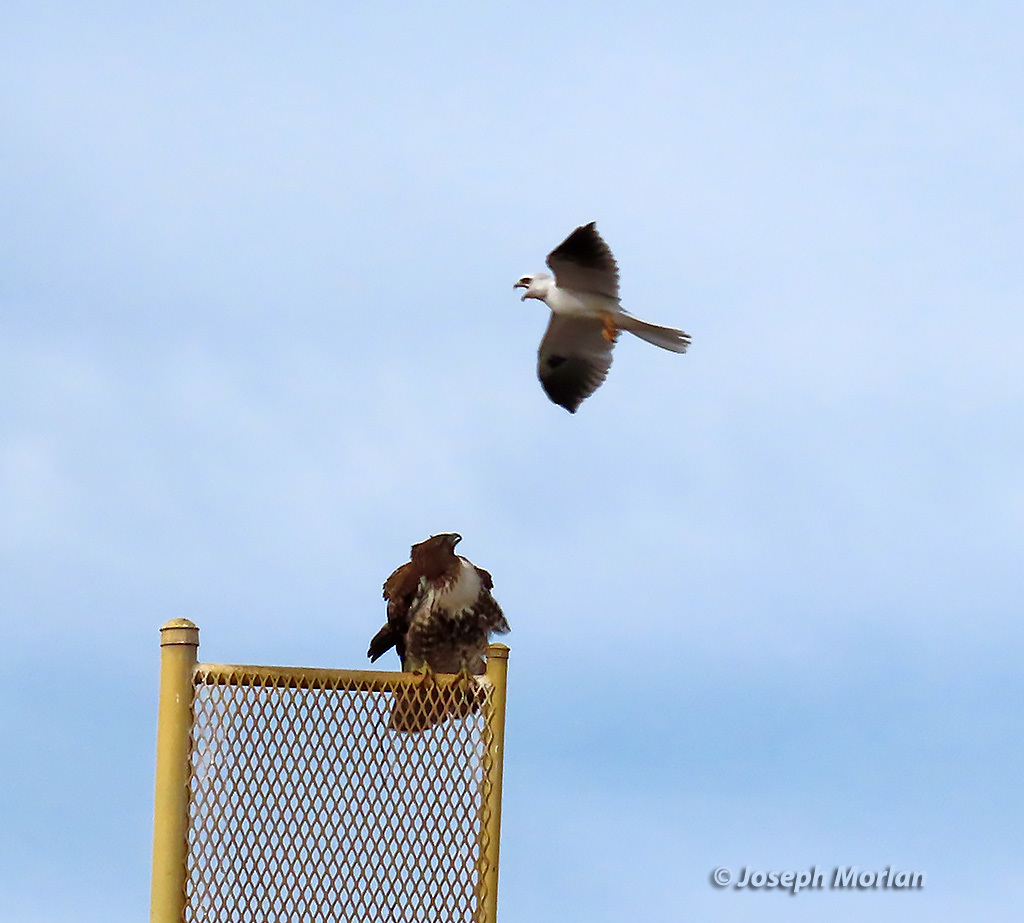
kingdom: Animalia
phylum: Chordata
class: Aves
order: Accipitriformes
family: Accipitridae
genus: Elanus
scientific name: Elanus leucurus
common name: White-tailed kite
